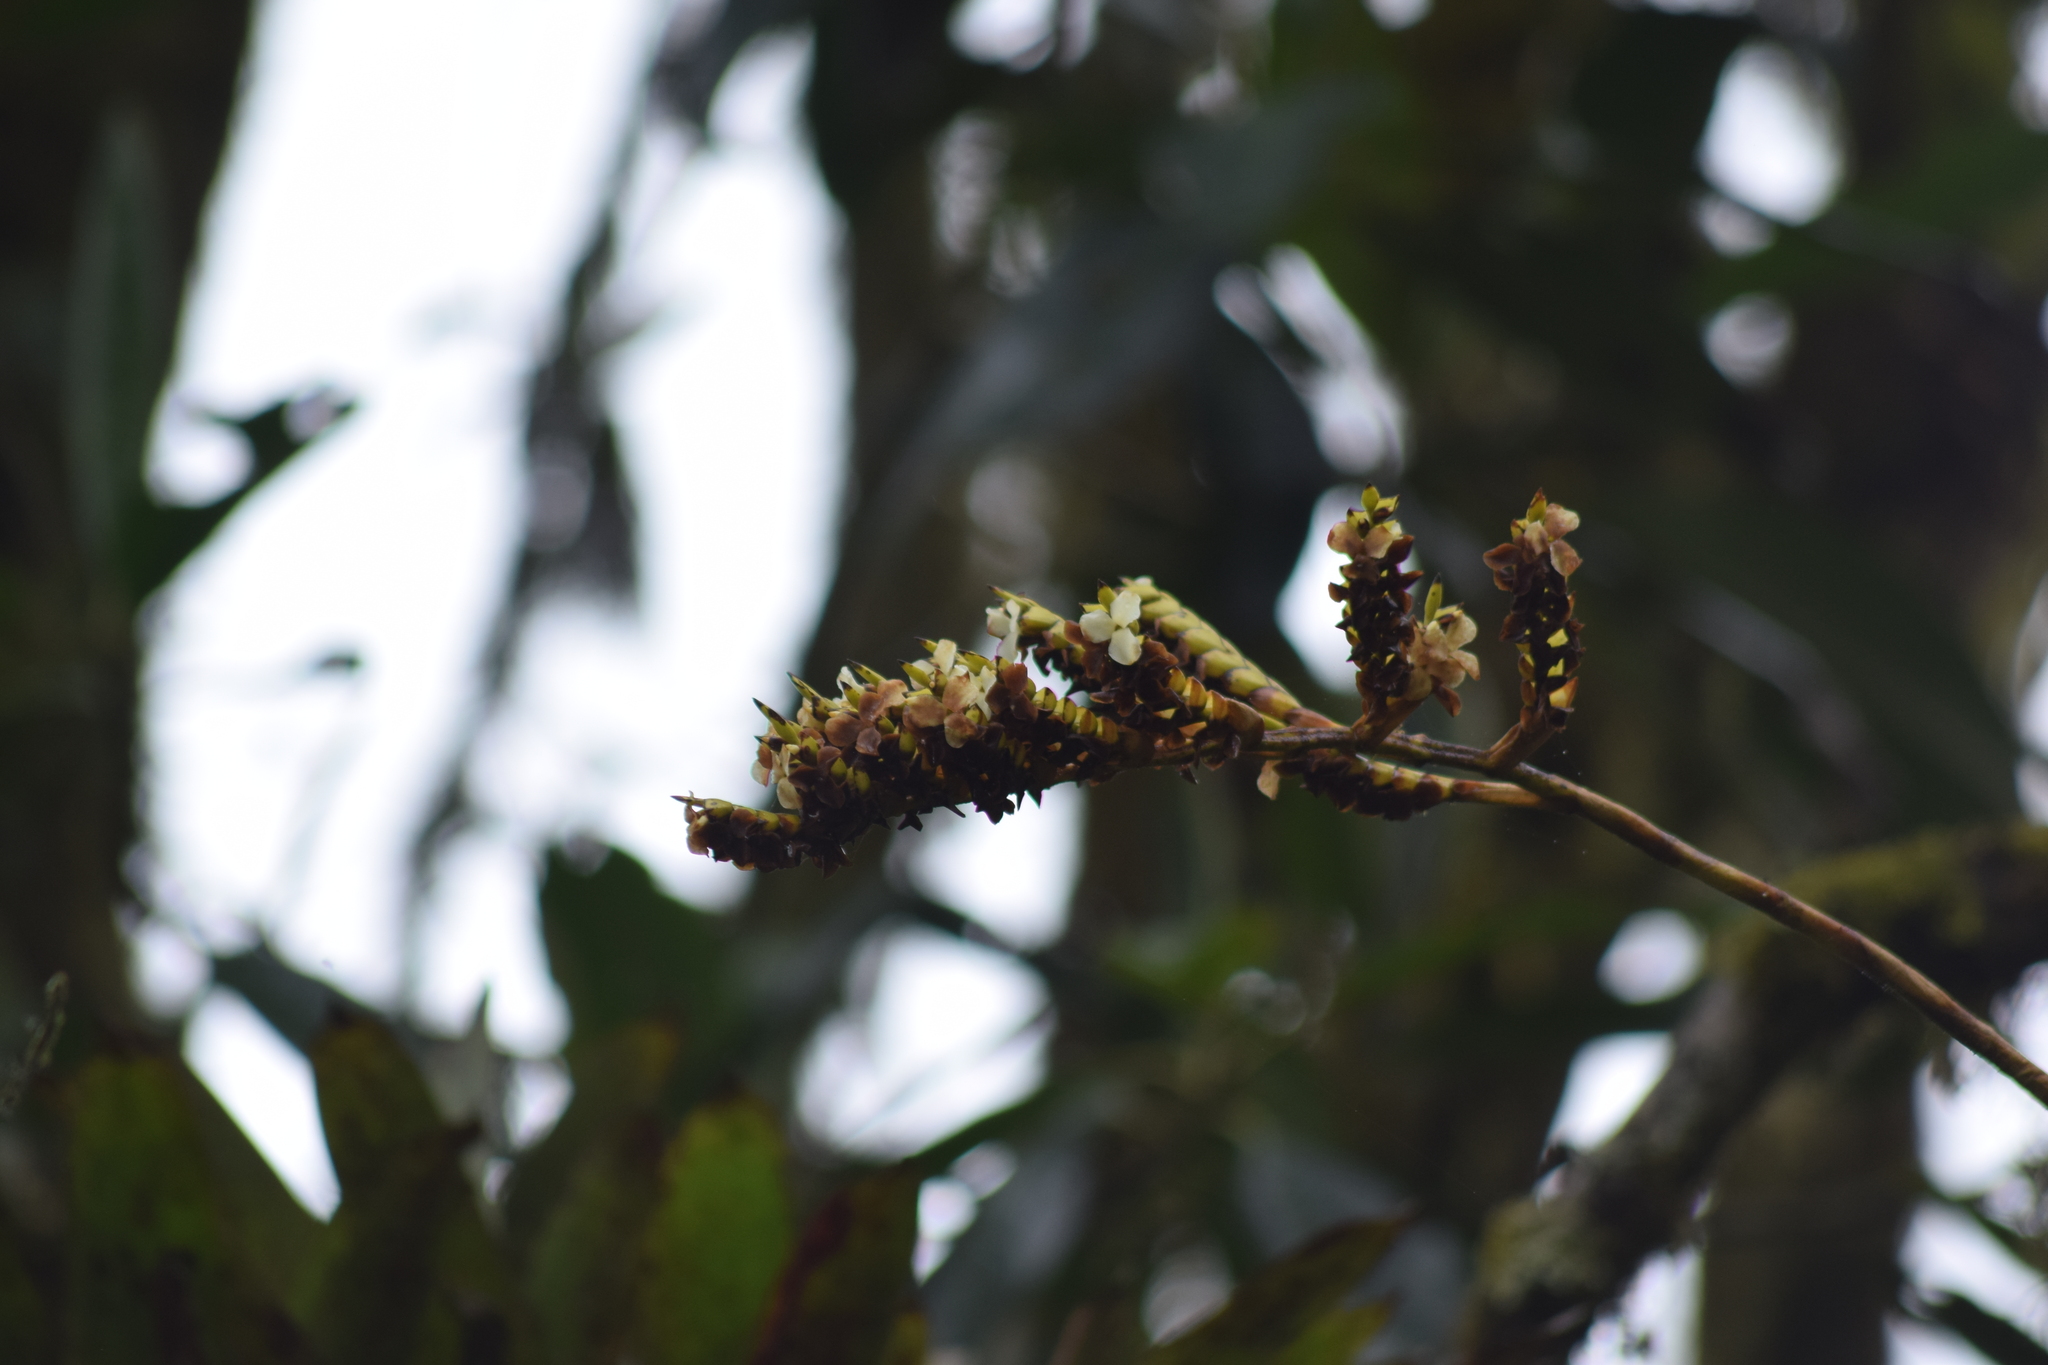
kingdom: Plantae
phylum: Tracheophyta
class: Liliopsida
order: Poales
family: Bromeliaceae
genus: Racinaea
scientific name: Racinaea riocreuxii
